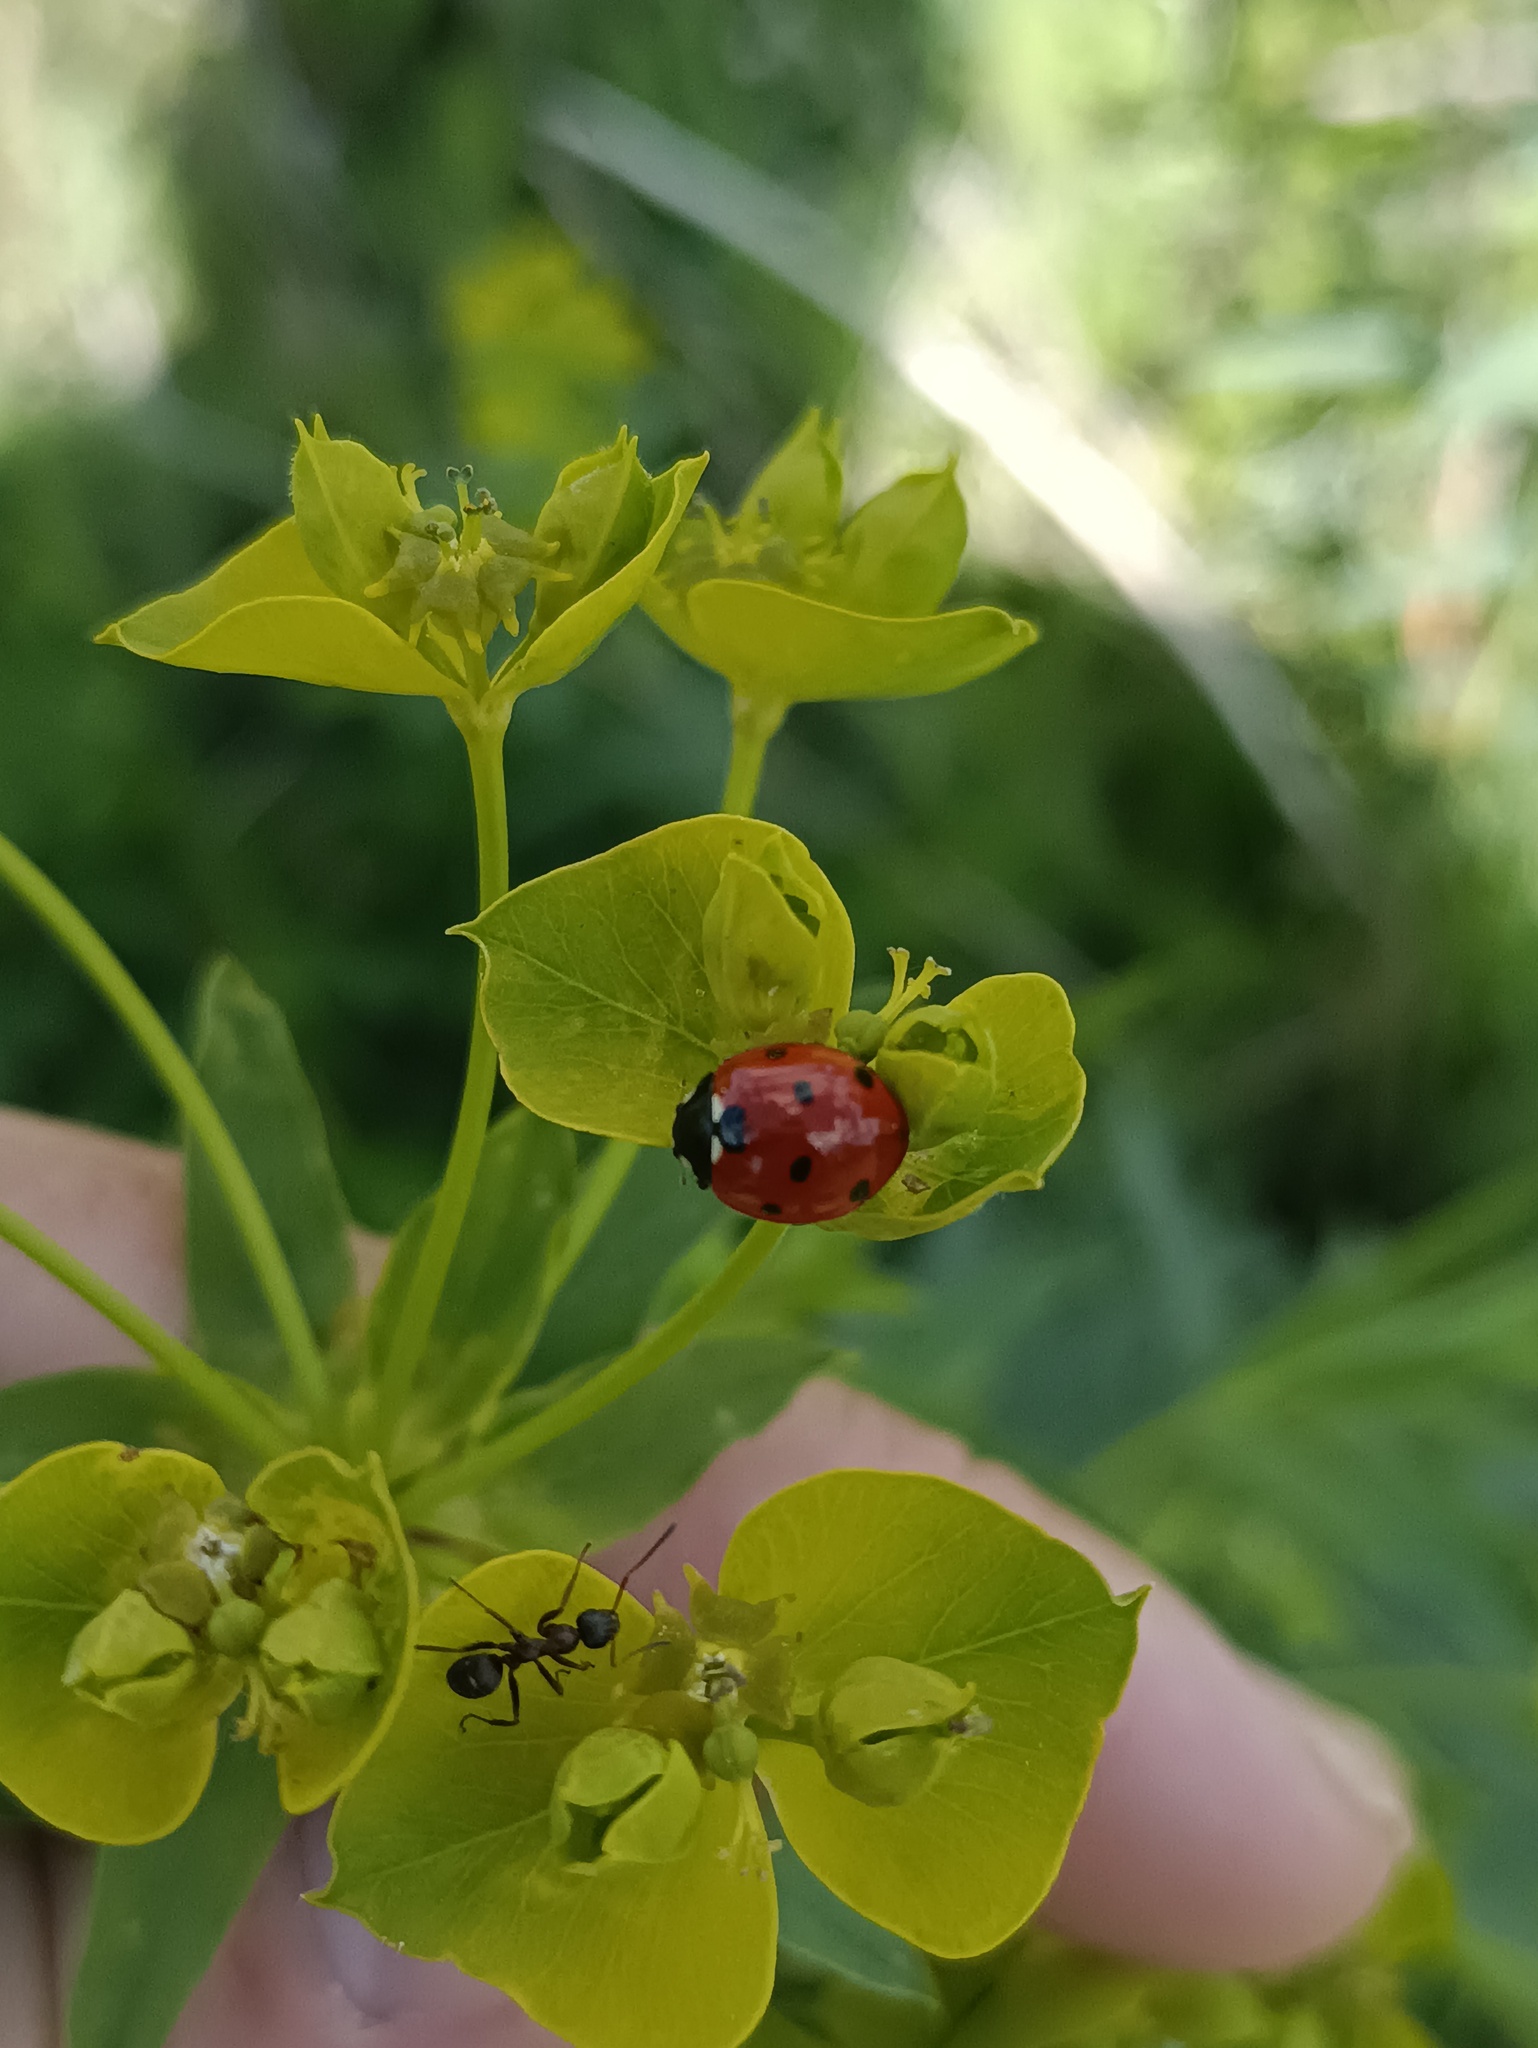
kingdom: Animalia
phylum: Arthropoda
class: Insecta
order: Coleoptera
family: Coccinellidae
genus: Coccinella
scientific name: Coccinella septempunctata
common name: Sevenspotted lady beetle
